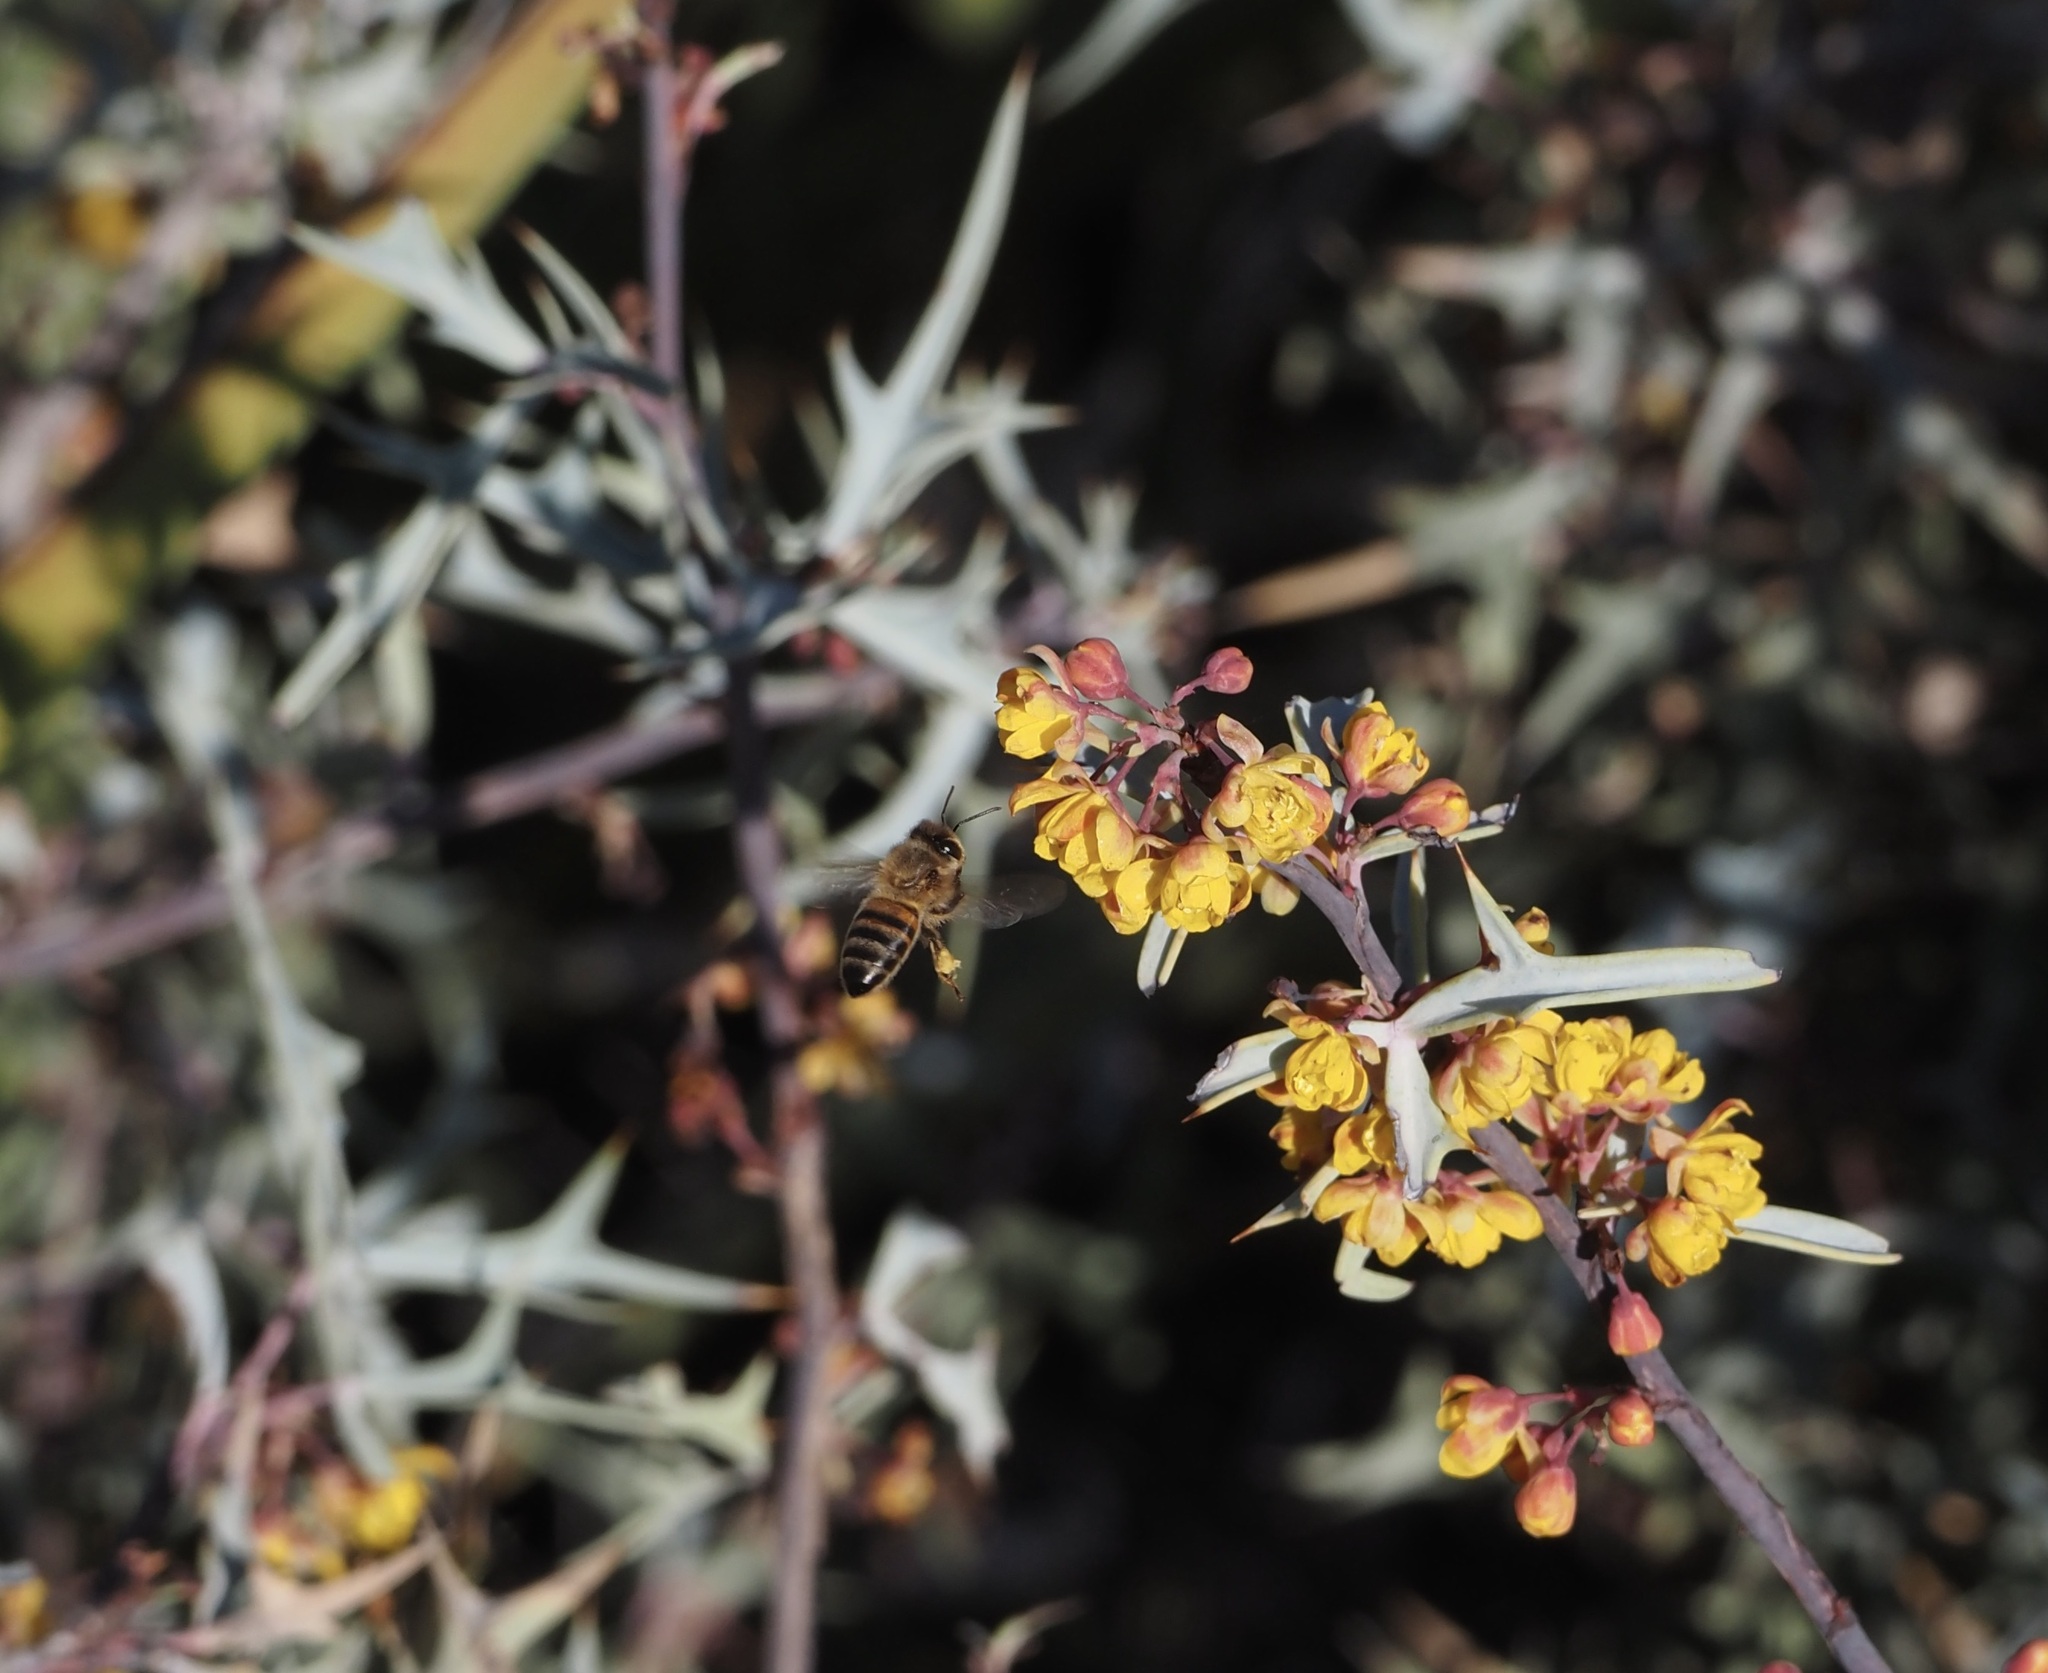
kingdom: Animalia
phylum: Arthropoda
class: Insecta
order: Hymenoptera
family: Apidae
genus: Apis
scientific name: Apis mellifera
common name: Honey bee
